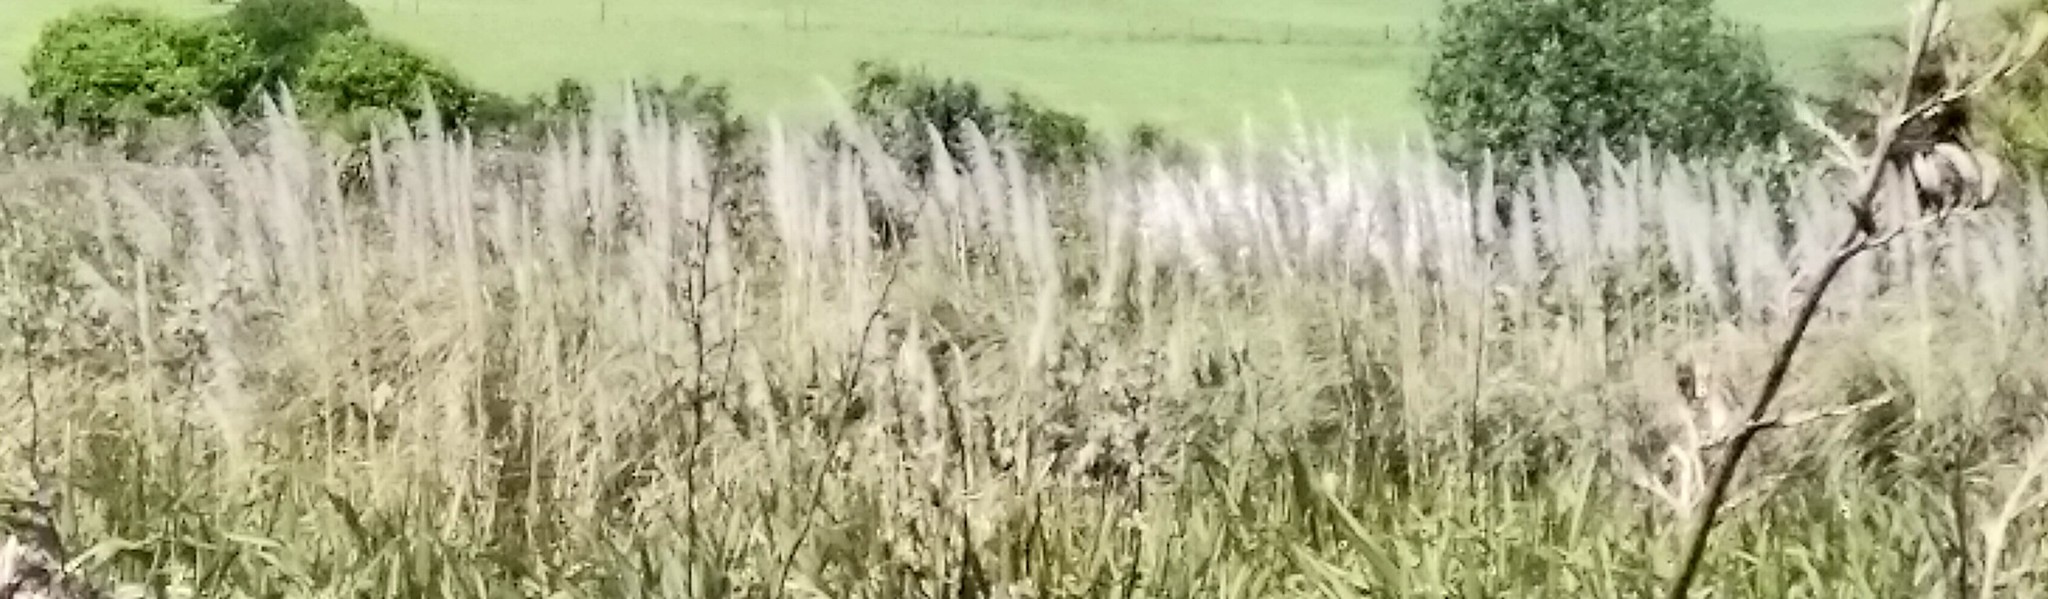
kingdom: Plantae
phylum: Tracheophyta
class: Liliopsida
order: Poales
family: Poaceae
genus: Austroderia
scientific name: Austroderia toetoe
